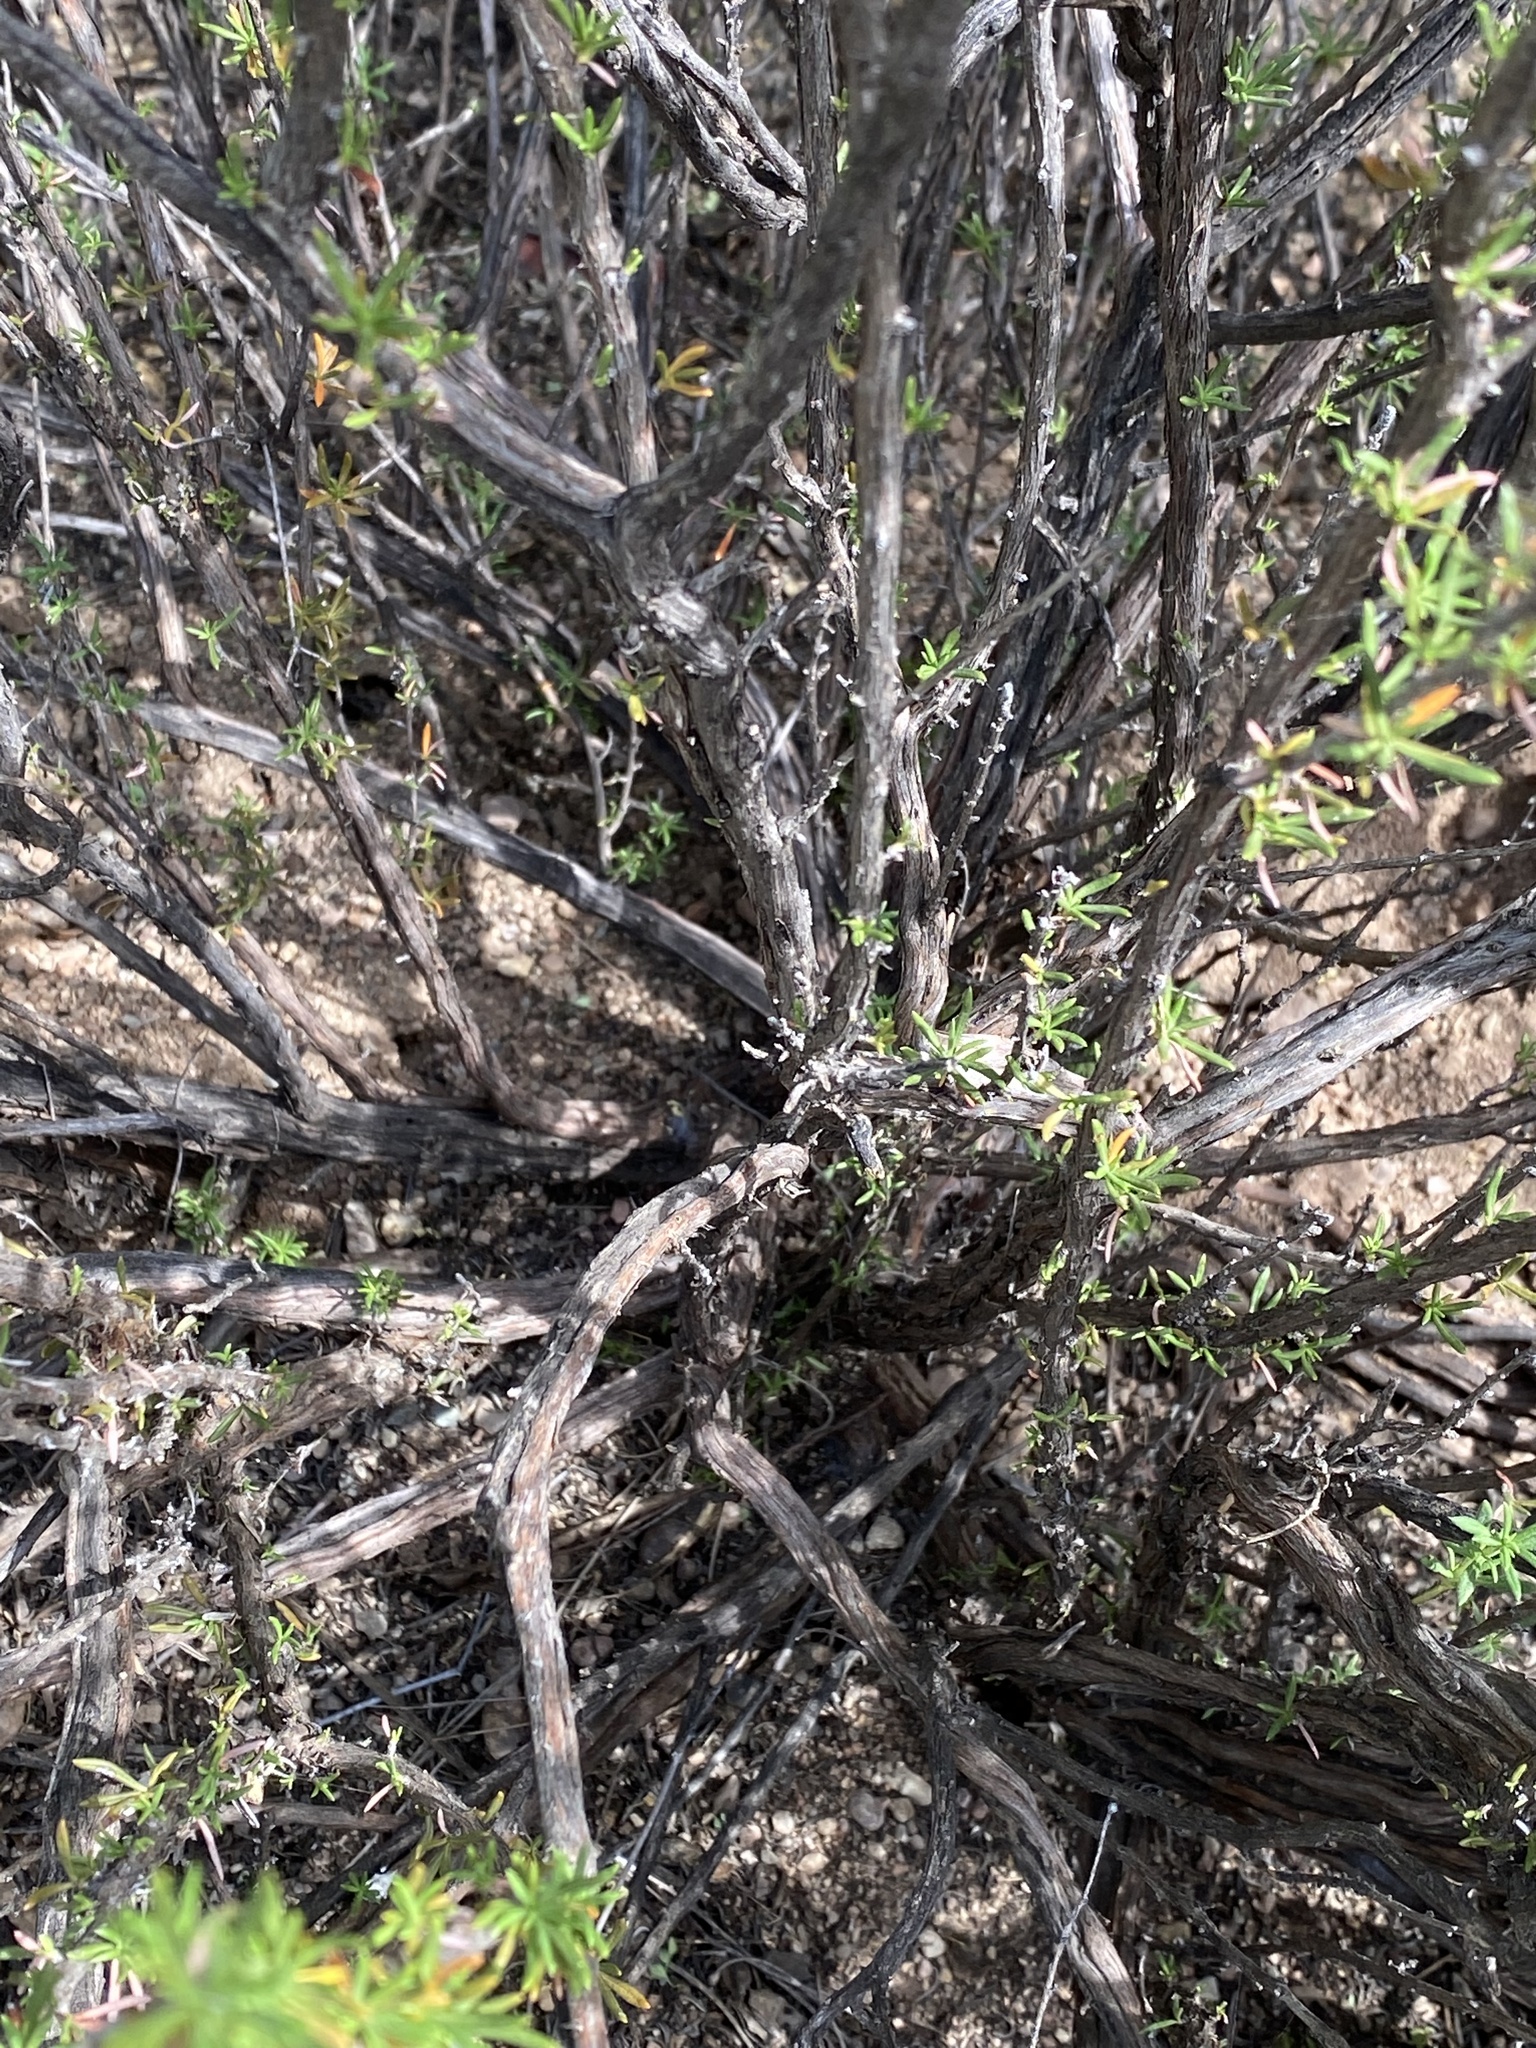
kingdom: Plantae
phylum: Tracheophyta
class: Magnoliopsida
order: Caryophyllales
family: Polygonaceae
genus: Eriogonum
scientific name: Eriogonum fasciculatum
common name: California wild buckwheat
